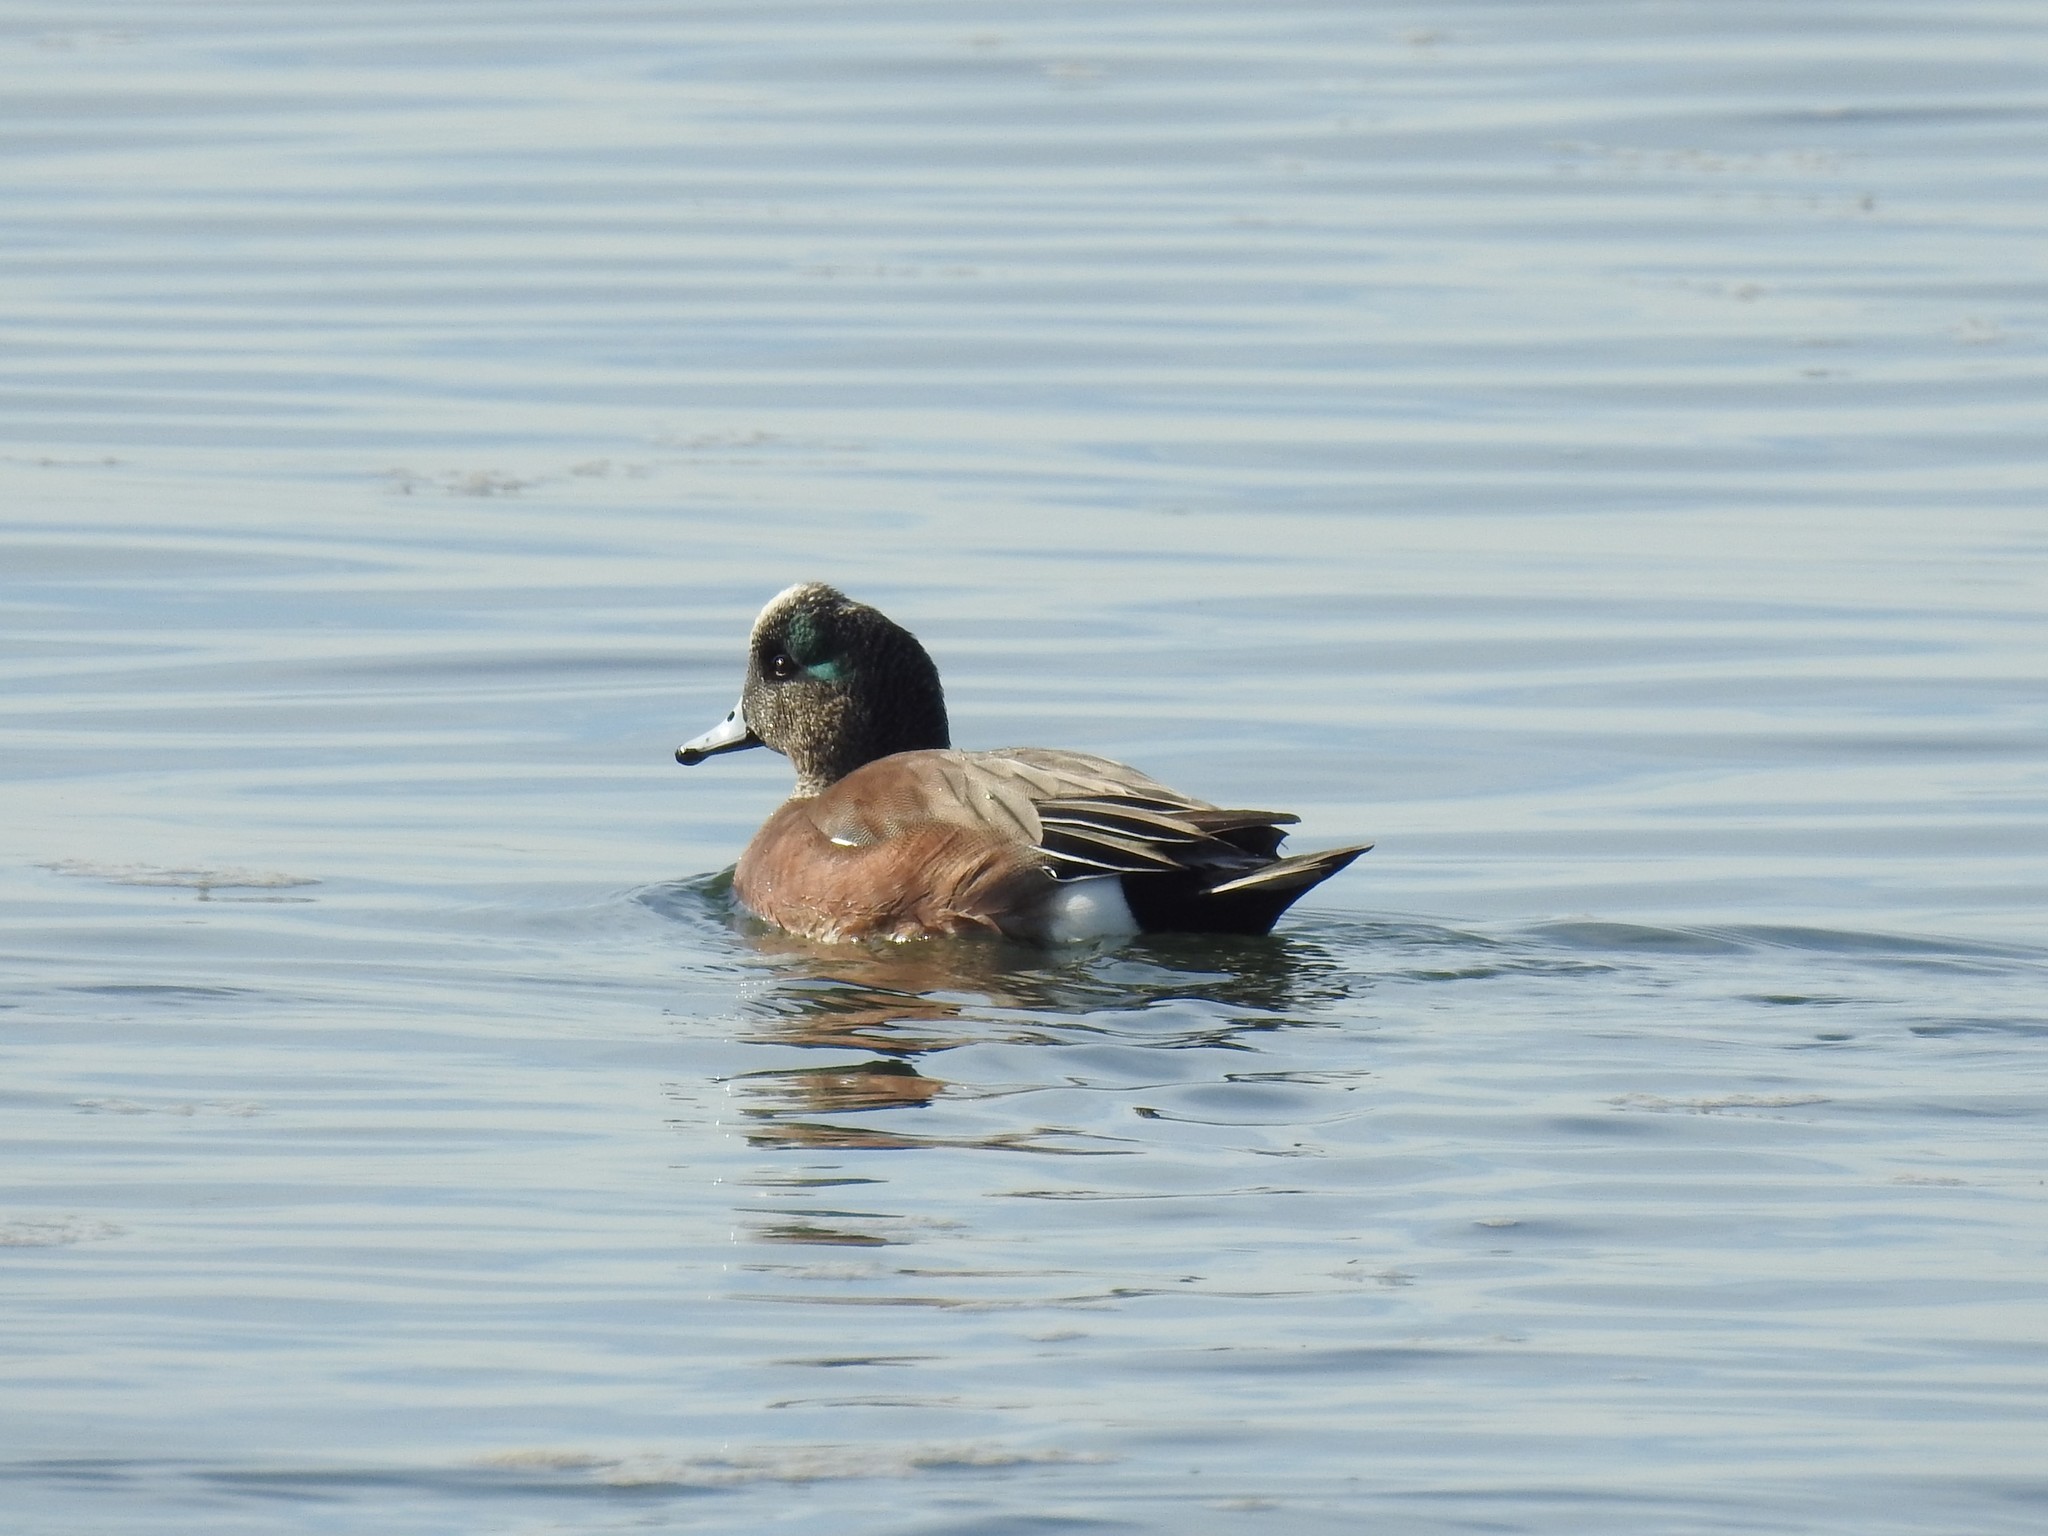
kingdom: Animalia
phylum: Chordata
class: Aves
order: Anseriformes
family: Anatidae
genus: Mareca
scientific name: Mareca americana
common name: American wigeon
